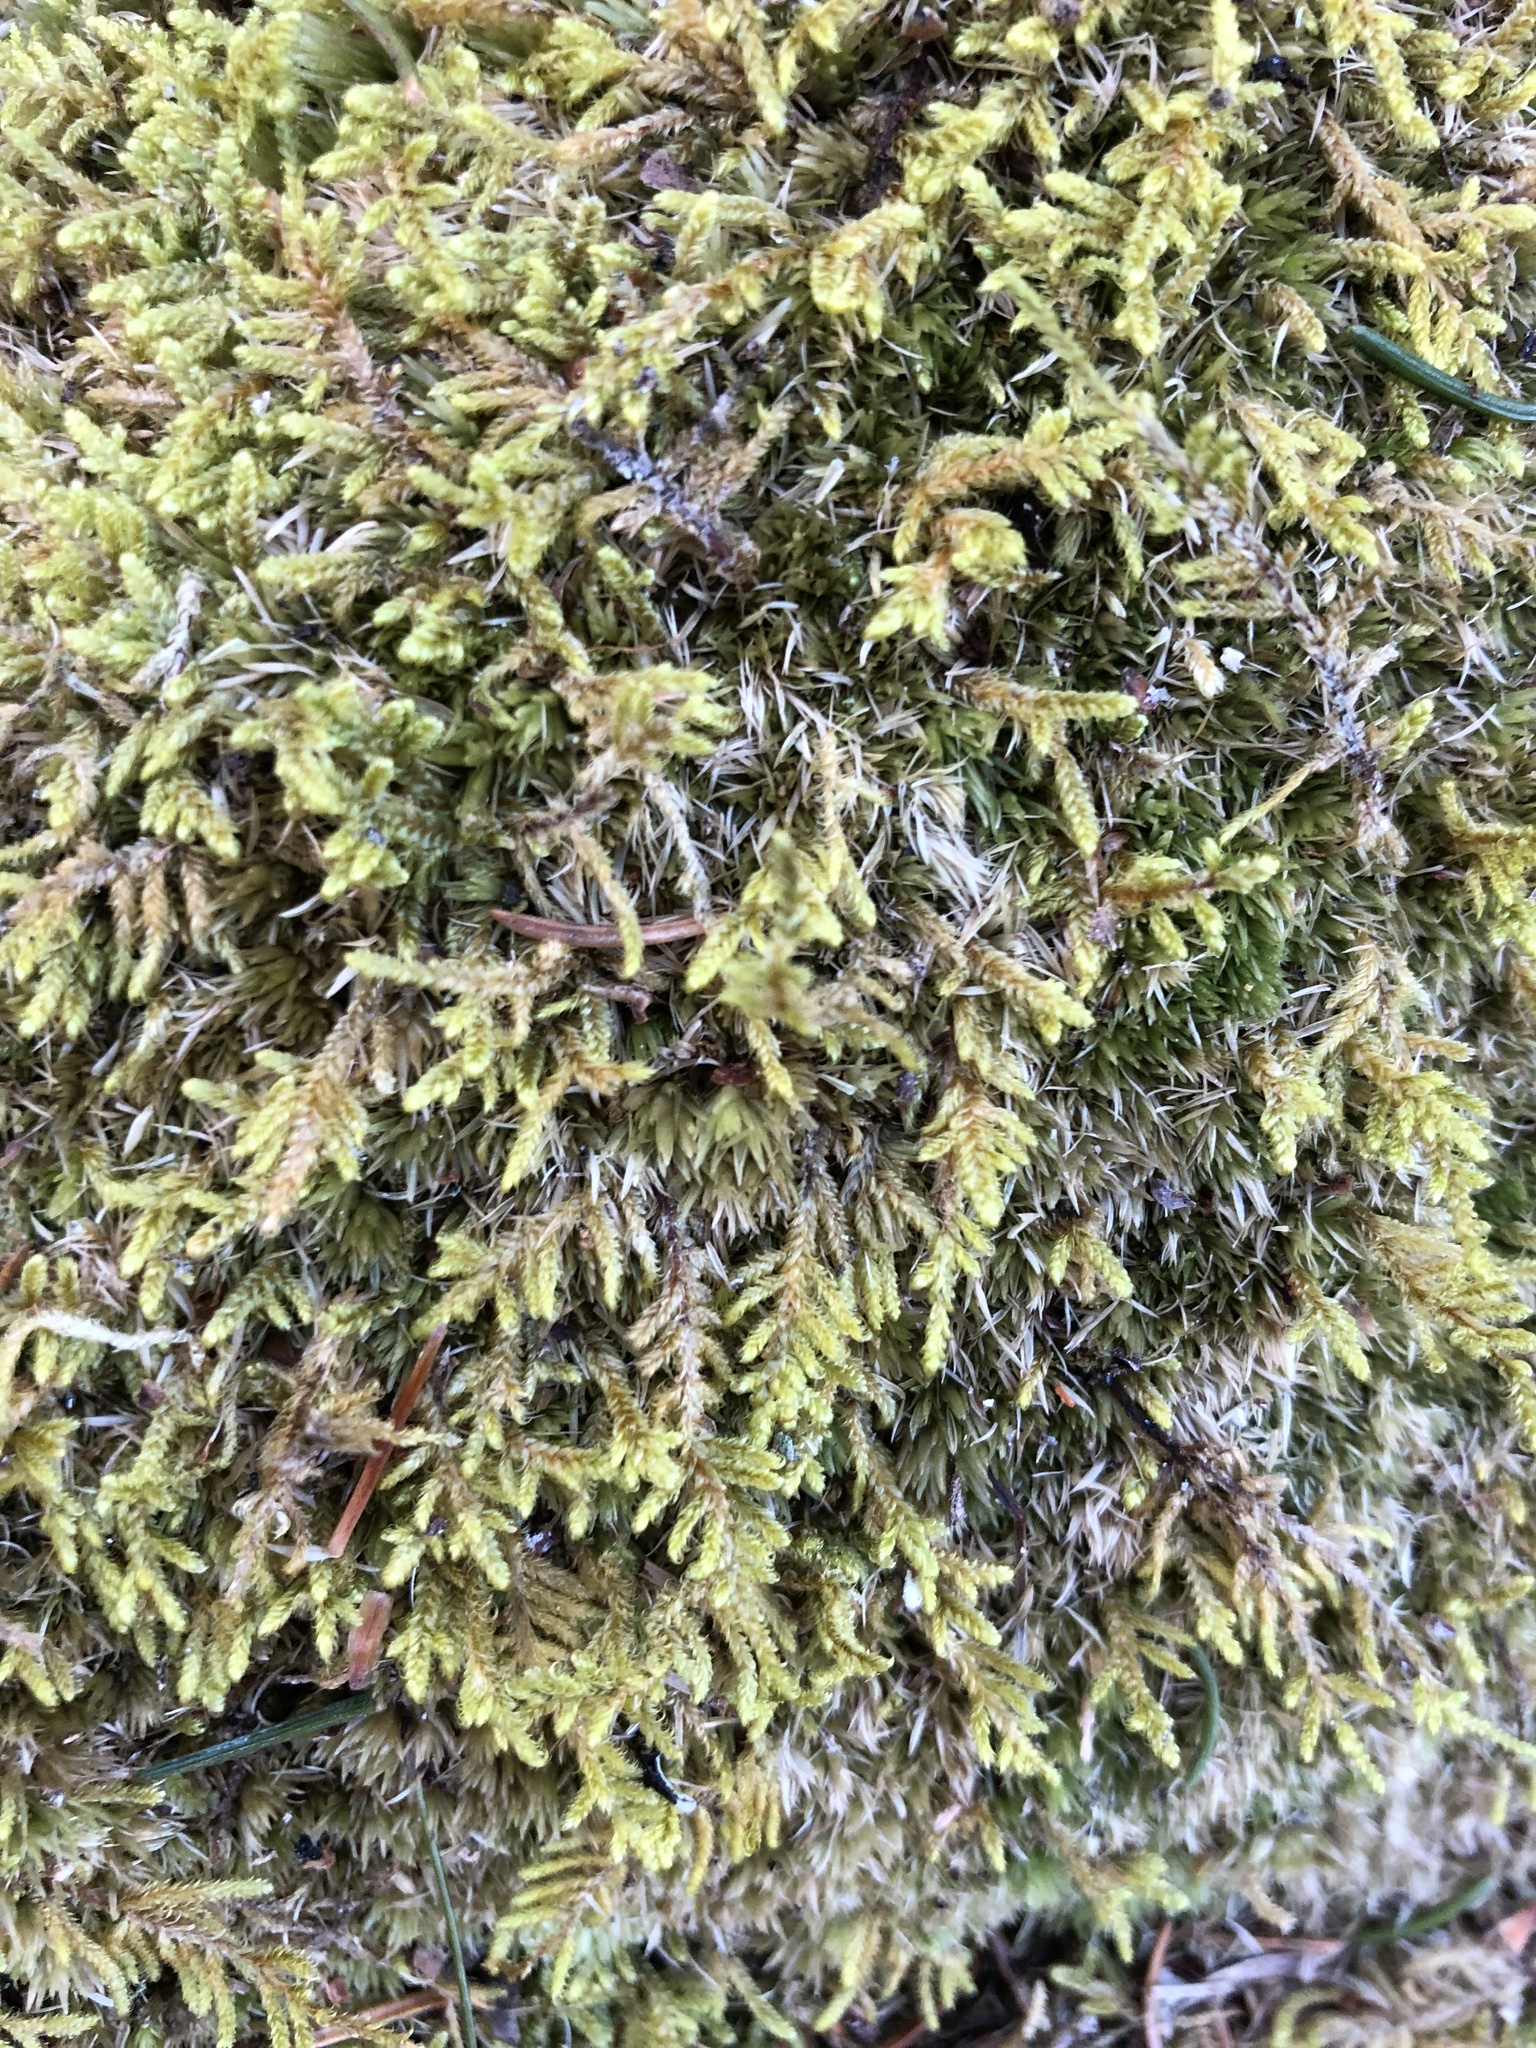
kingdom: Plantae
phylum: Bryophyta
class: Bryopsida
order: Hypnales
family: Callicladiaceae
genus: Callicladium
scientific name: Callicladium imponens
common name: Brocade moss
